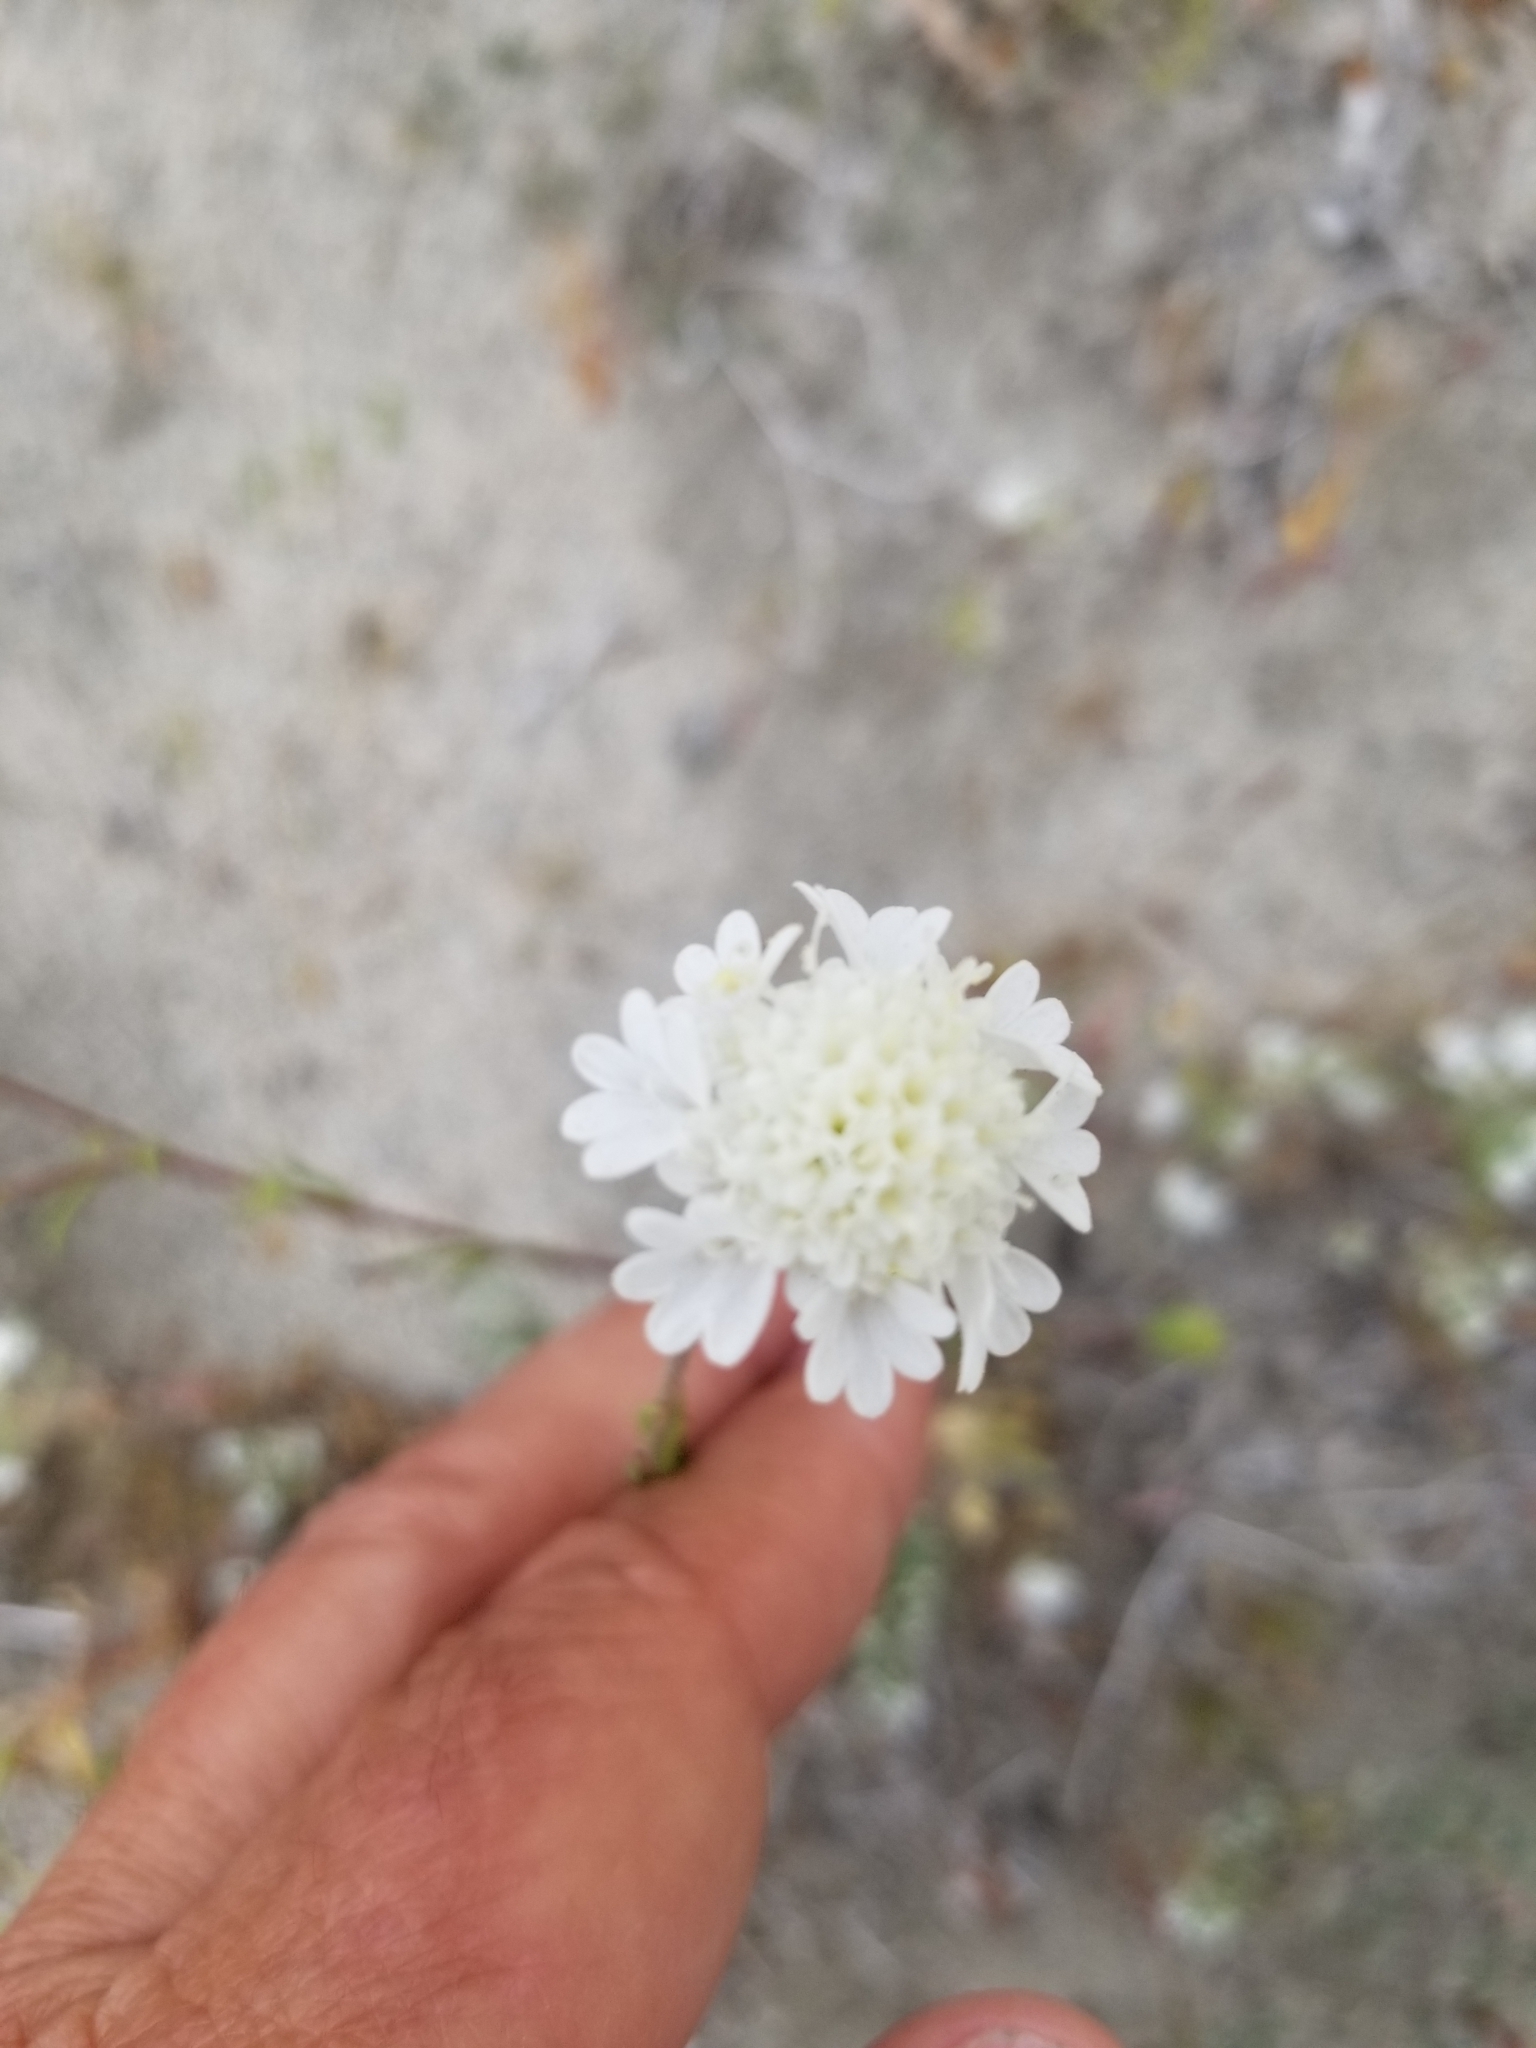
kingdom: Plantae
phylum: Tracheophyta
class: Magnoliopsida
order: Asterales
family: Asteraceae
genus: Chaenactis
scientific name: Chaenactis fremontii
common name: Fremont pincushion
